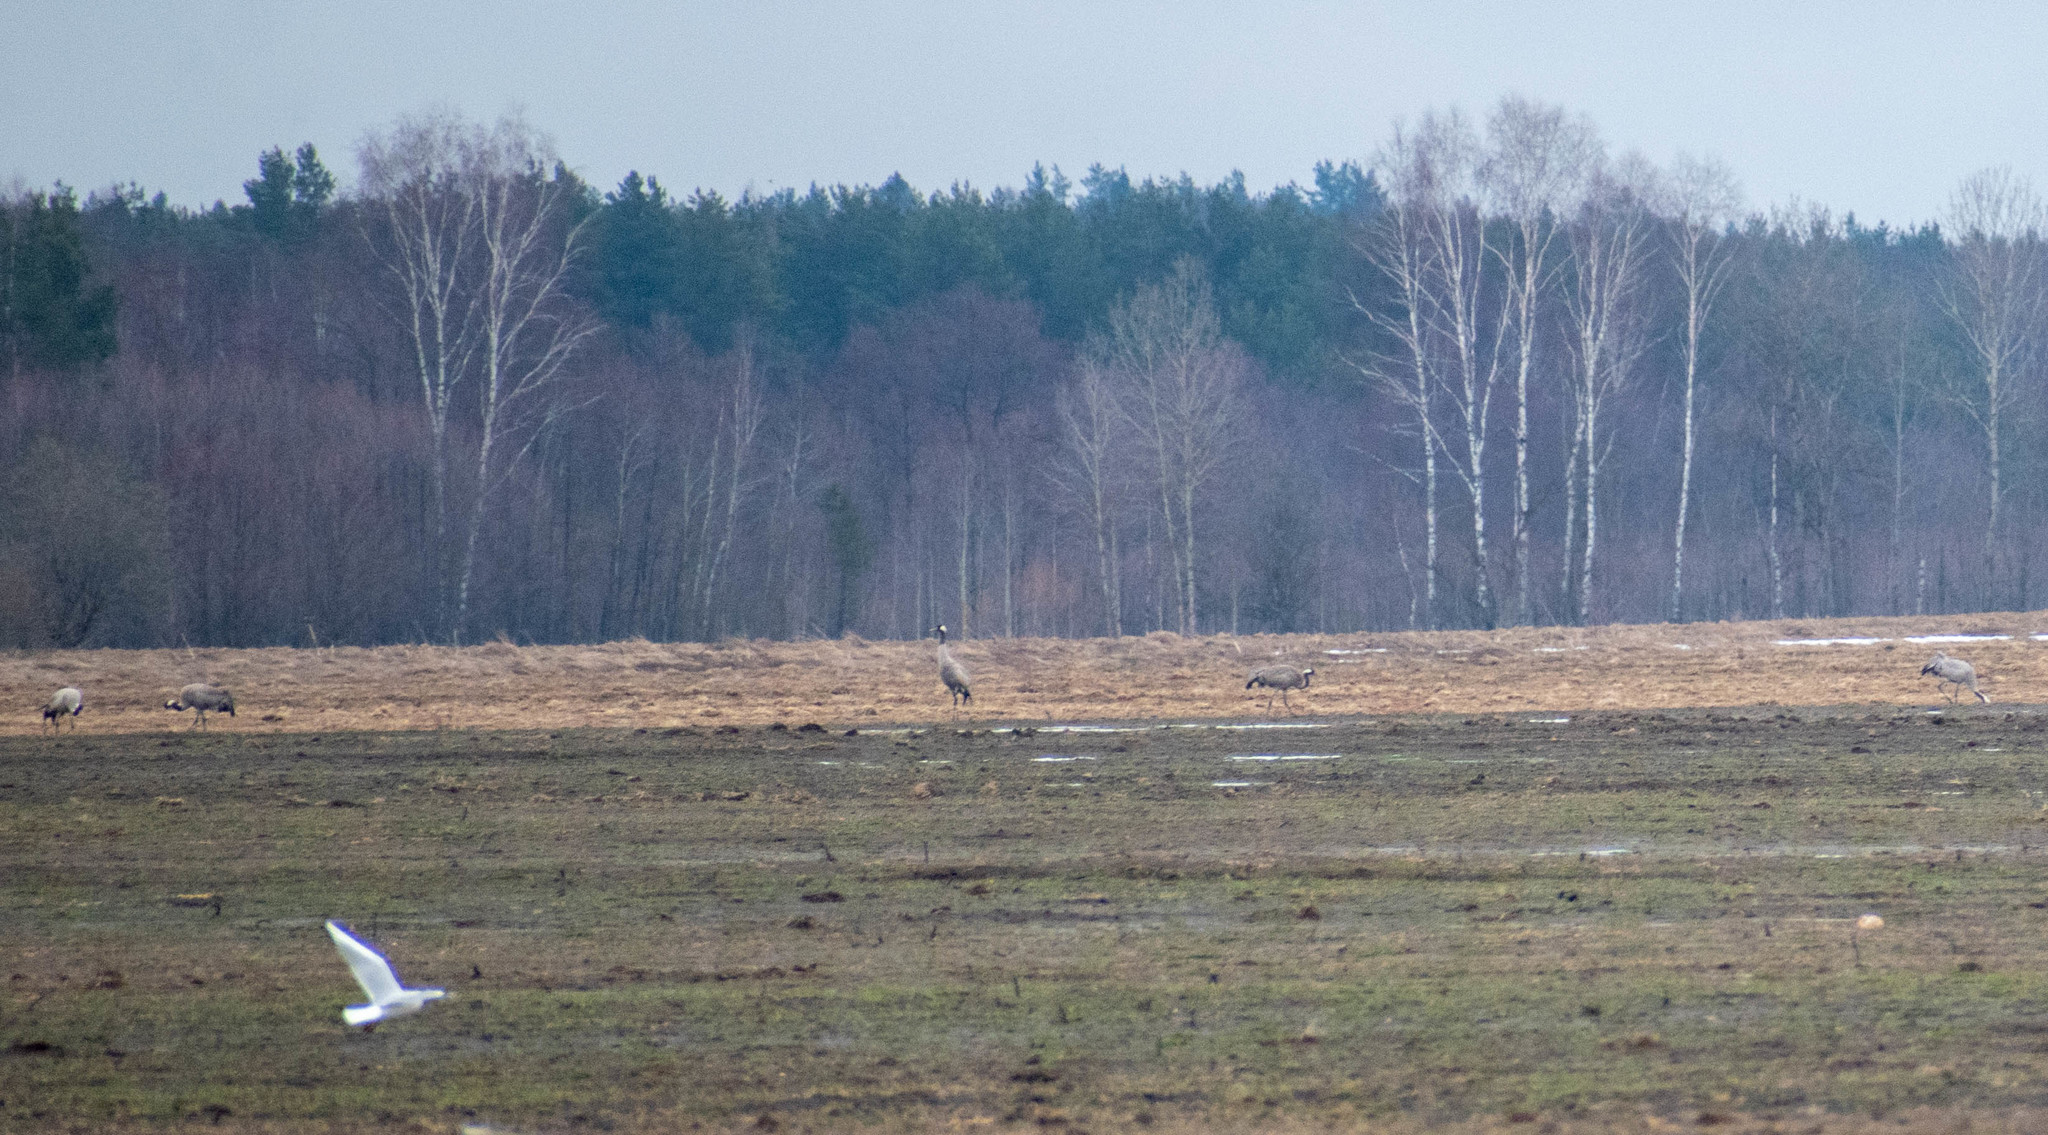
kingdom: Animalia
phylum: Chordata
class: Aves
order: Gruiformes
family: Gruidae
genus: Grus
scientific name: Grus grus
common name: Common crane
